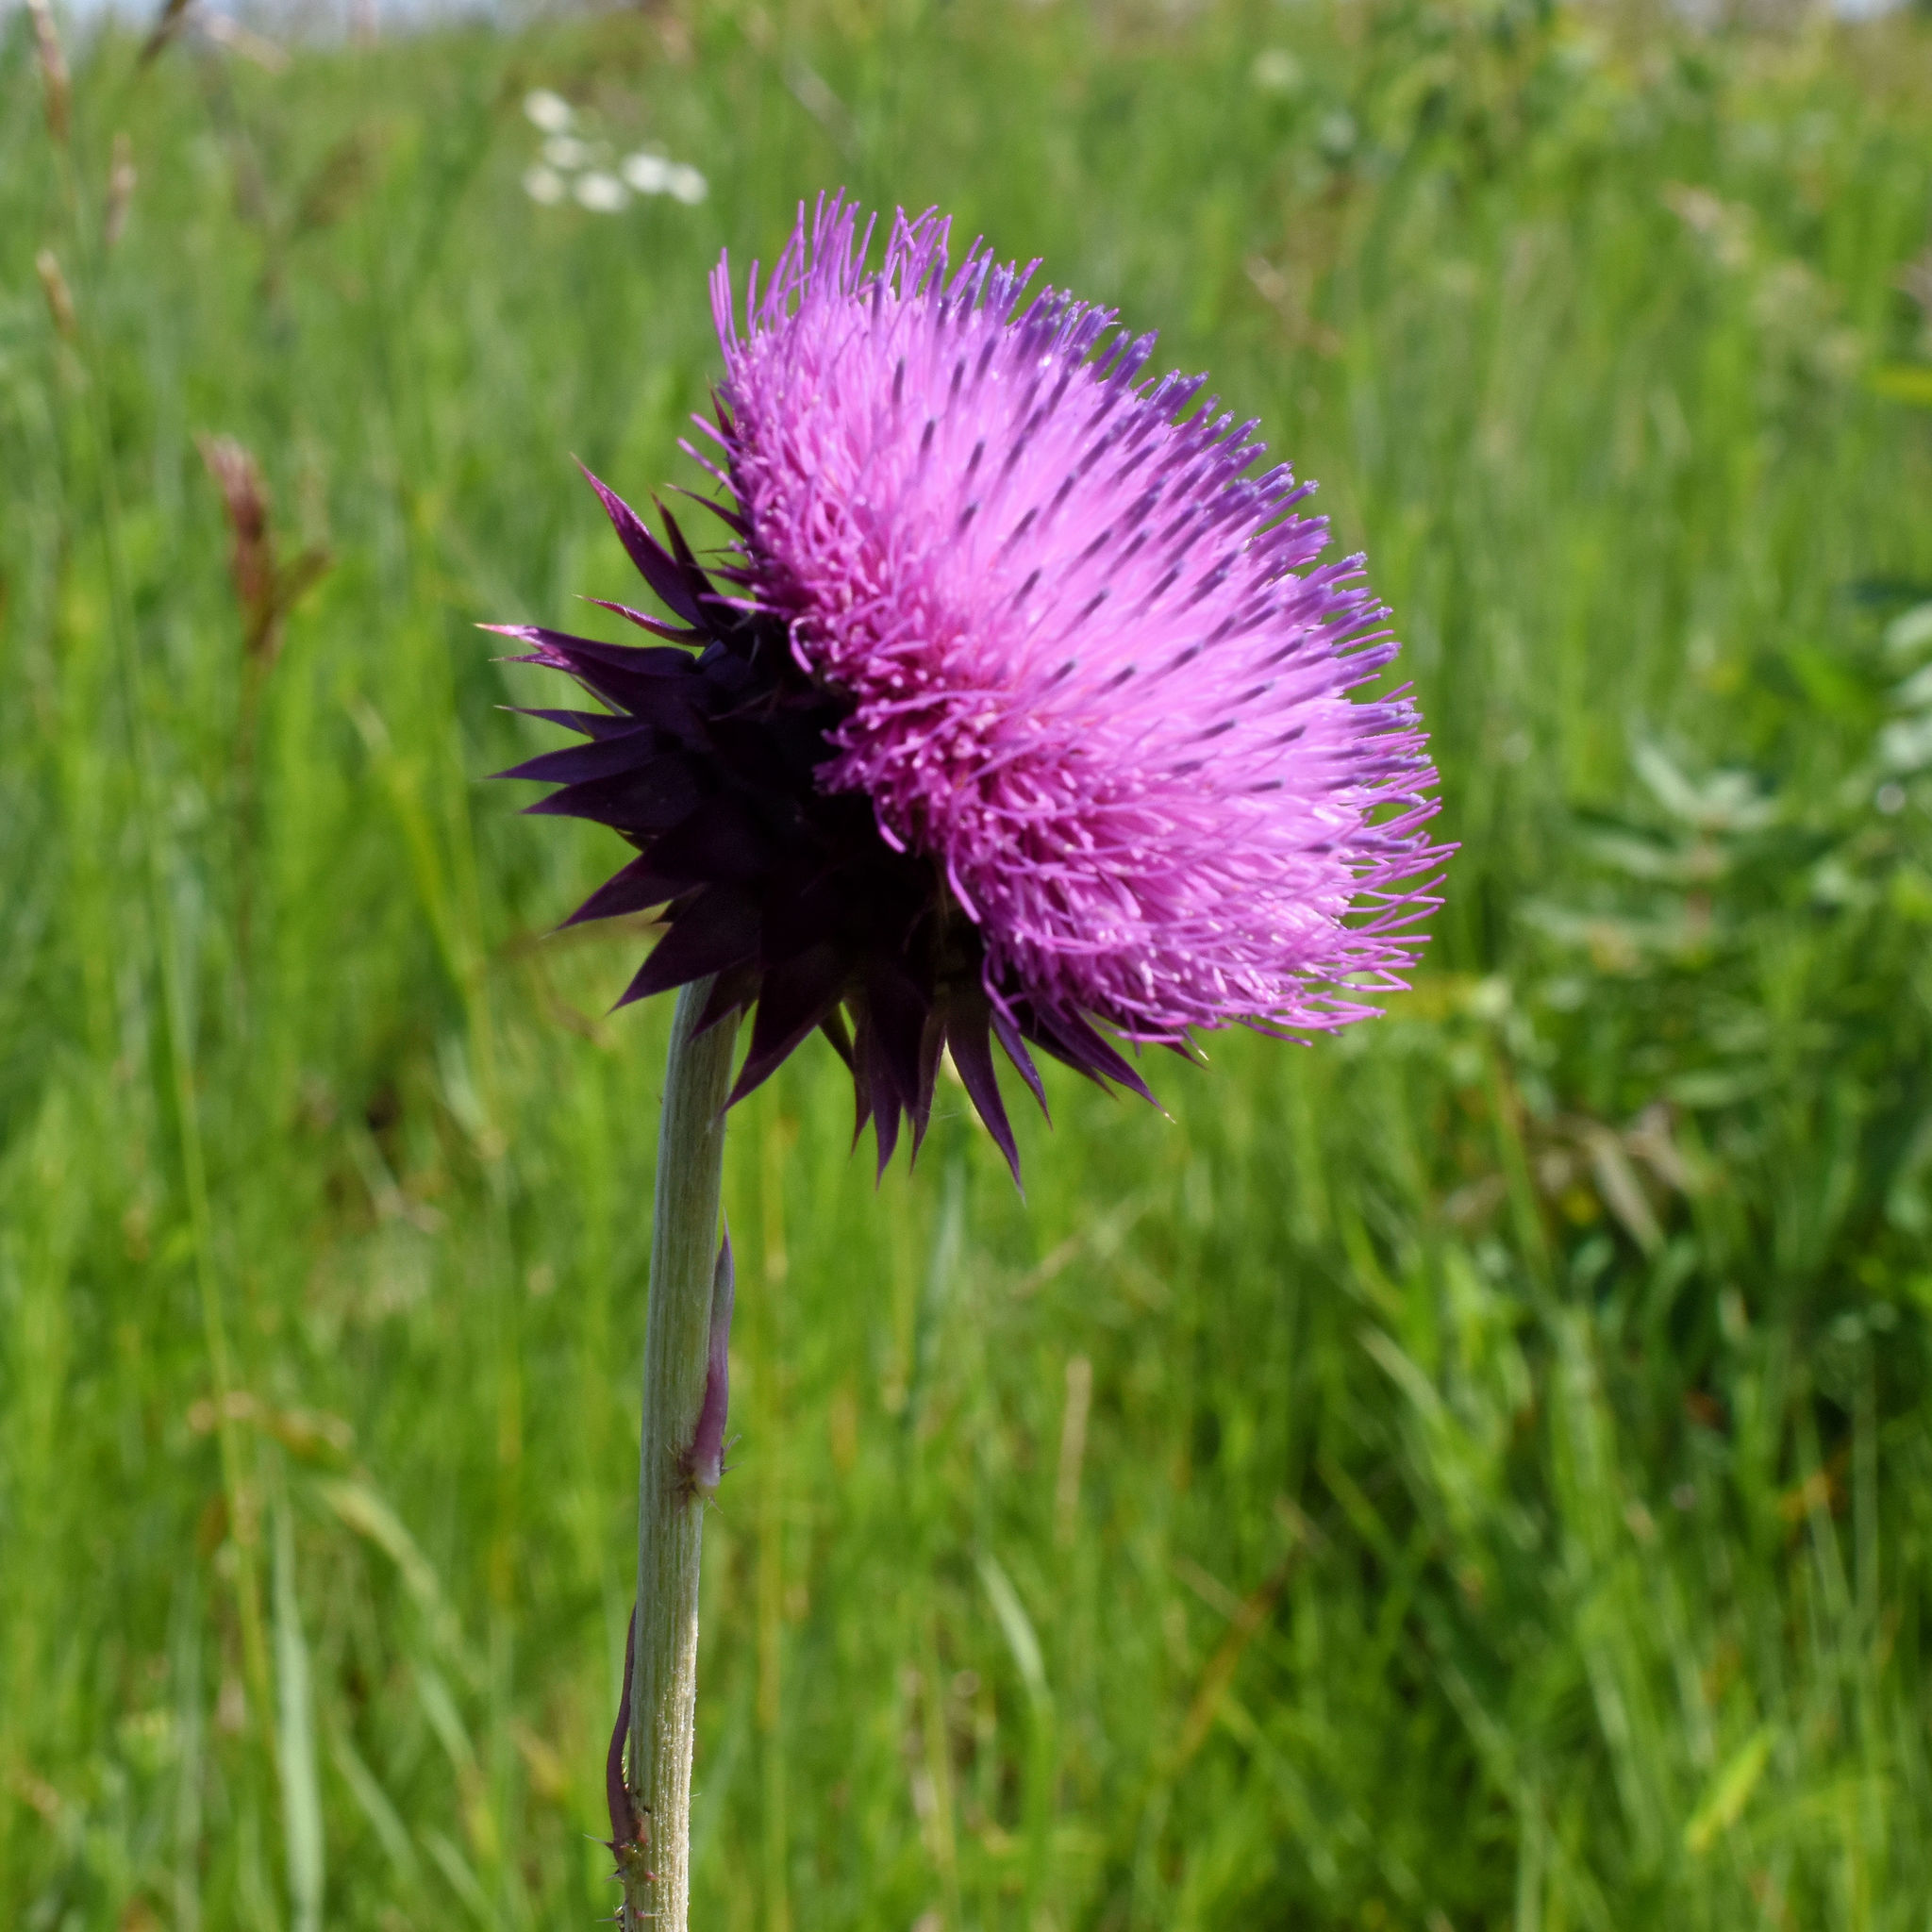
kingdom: Plantae
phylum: Tracheophyta
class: Magnoliopsida
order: Asterales
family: Asteraceae
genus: Carduus
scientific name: Carduus nutans
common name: Musk thistle
